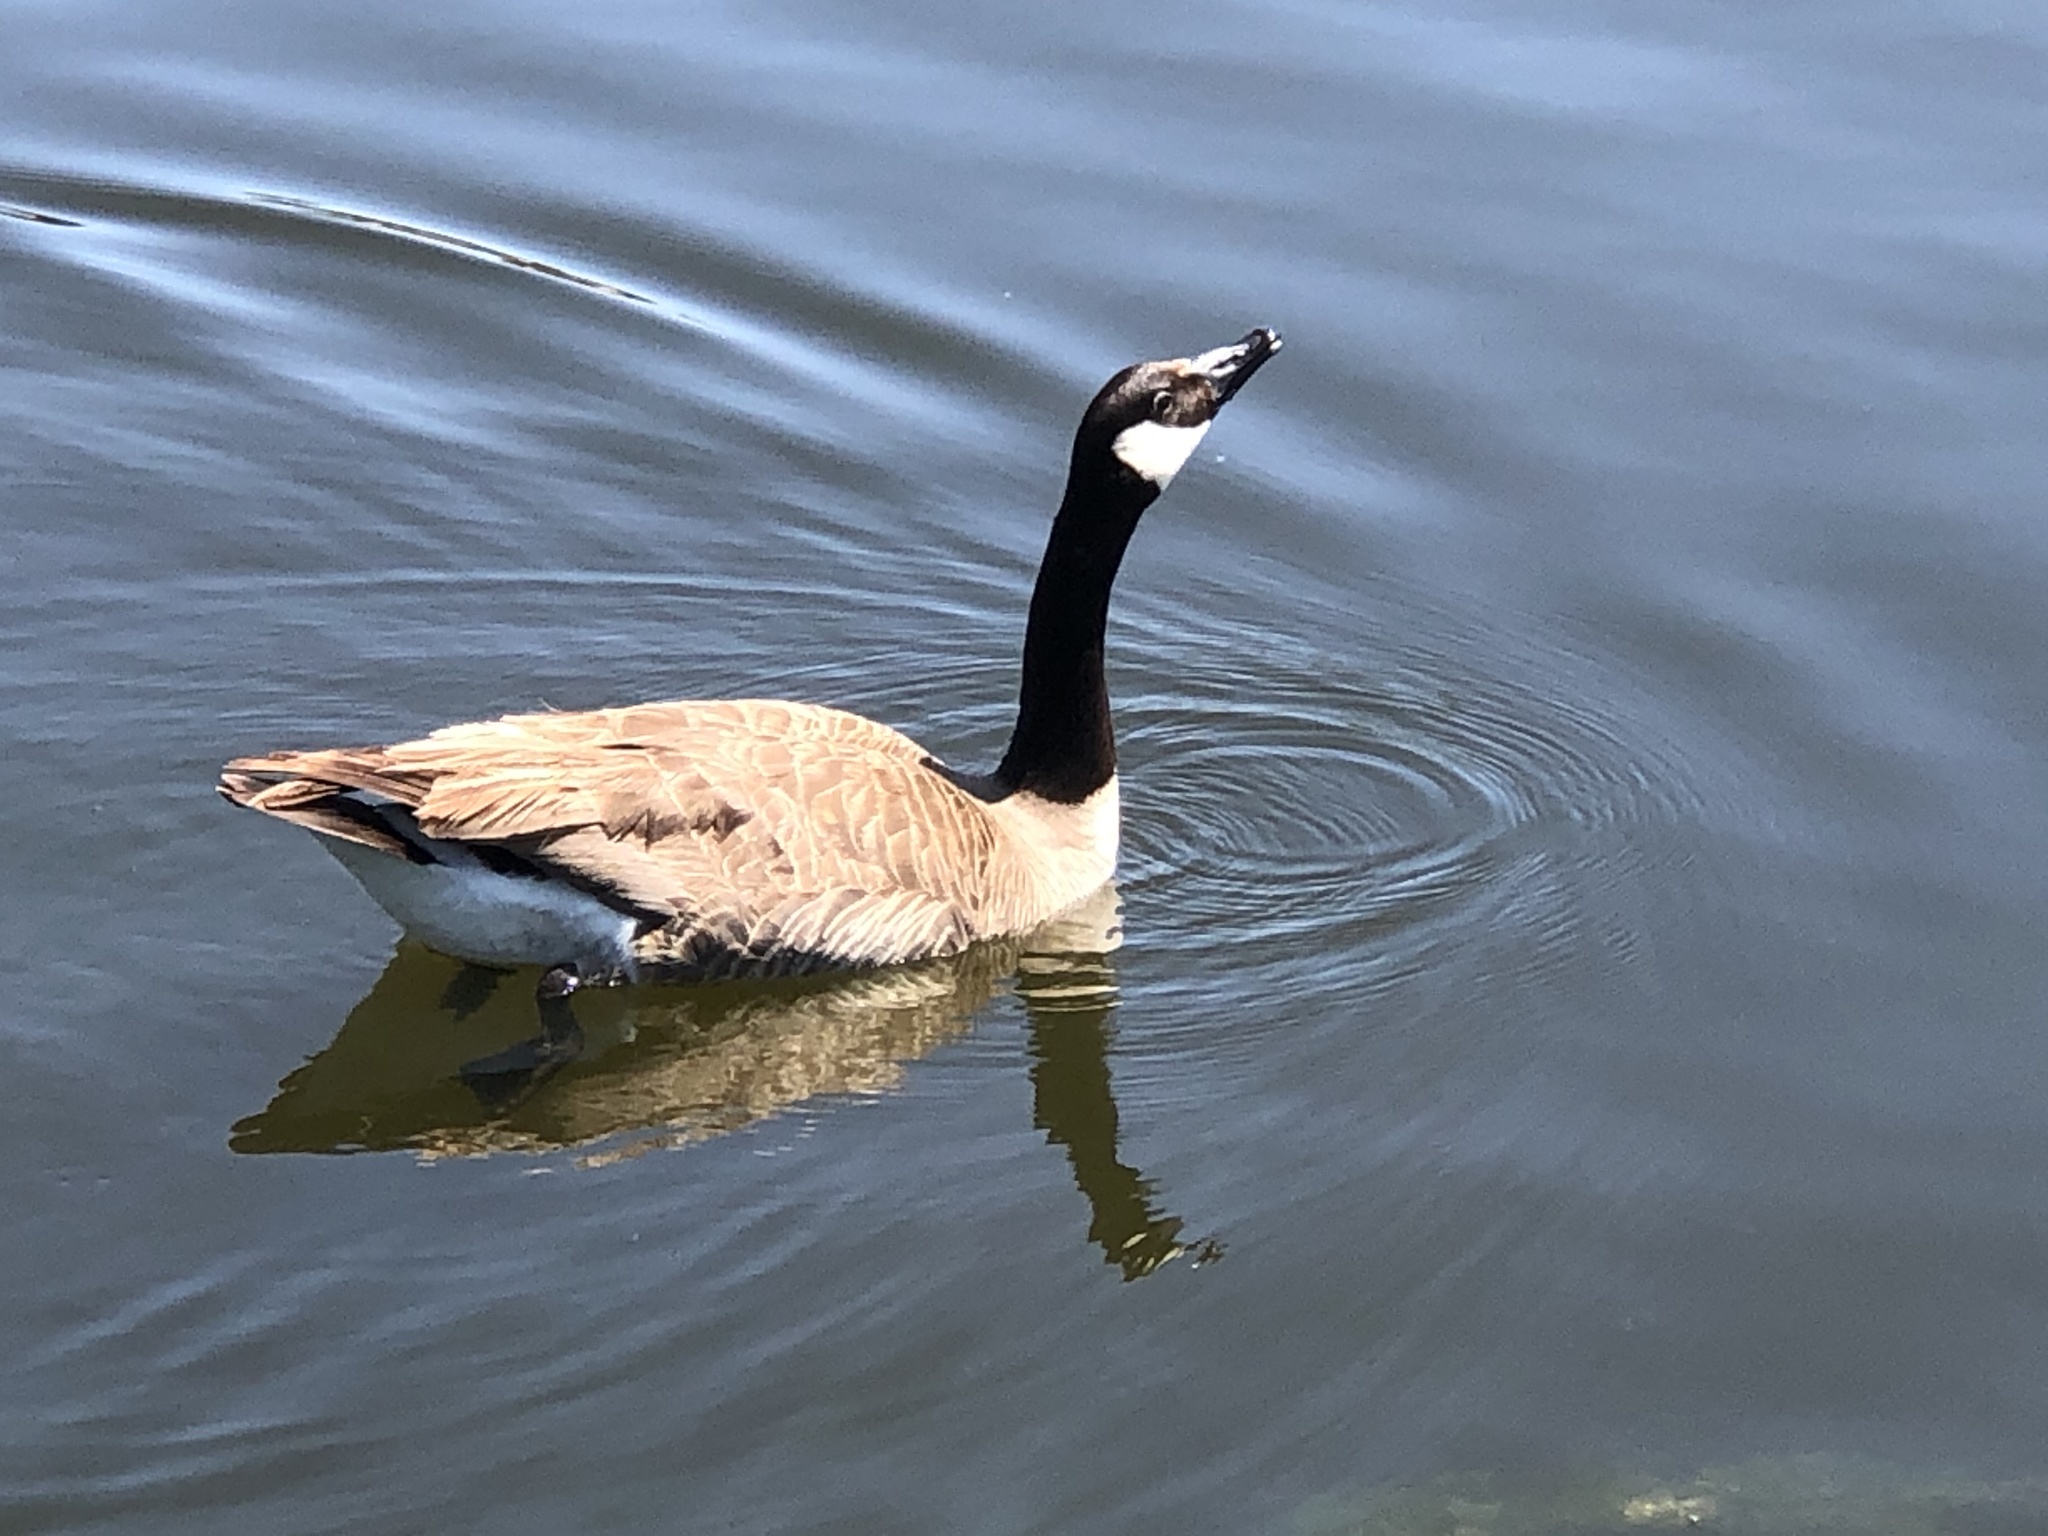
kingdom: Animalia
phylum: Chordata
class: Aves
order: Anseriformes
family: Anatidae
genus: Branta
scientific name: Branta canadensis
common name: Canada goose
